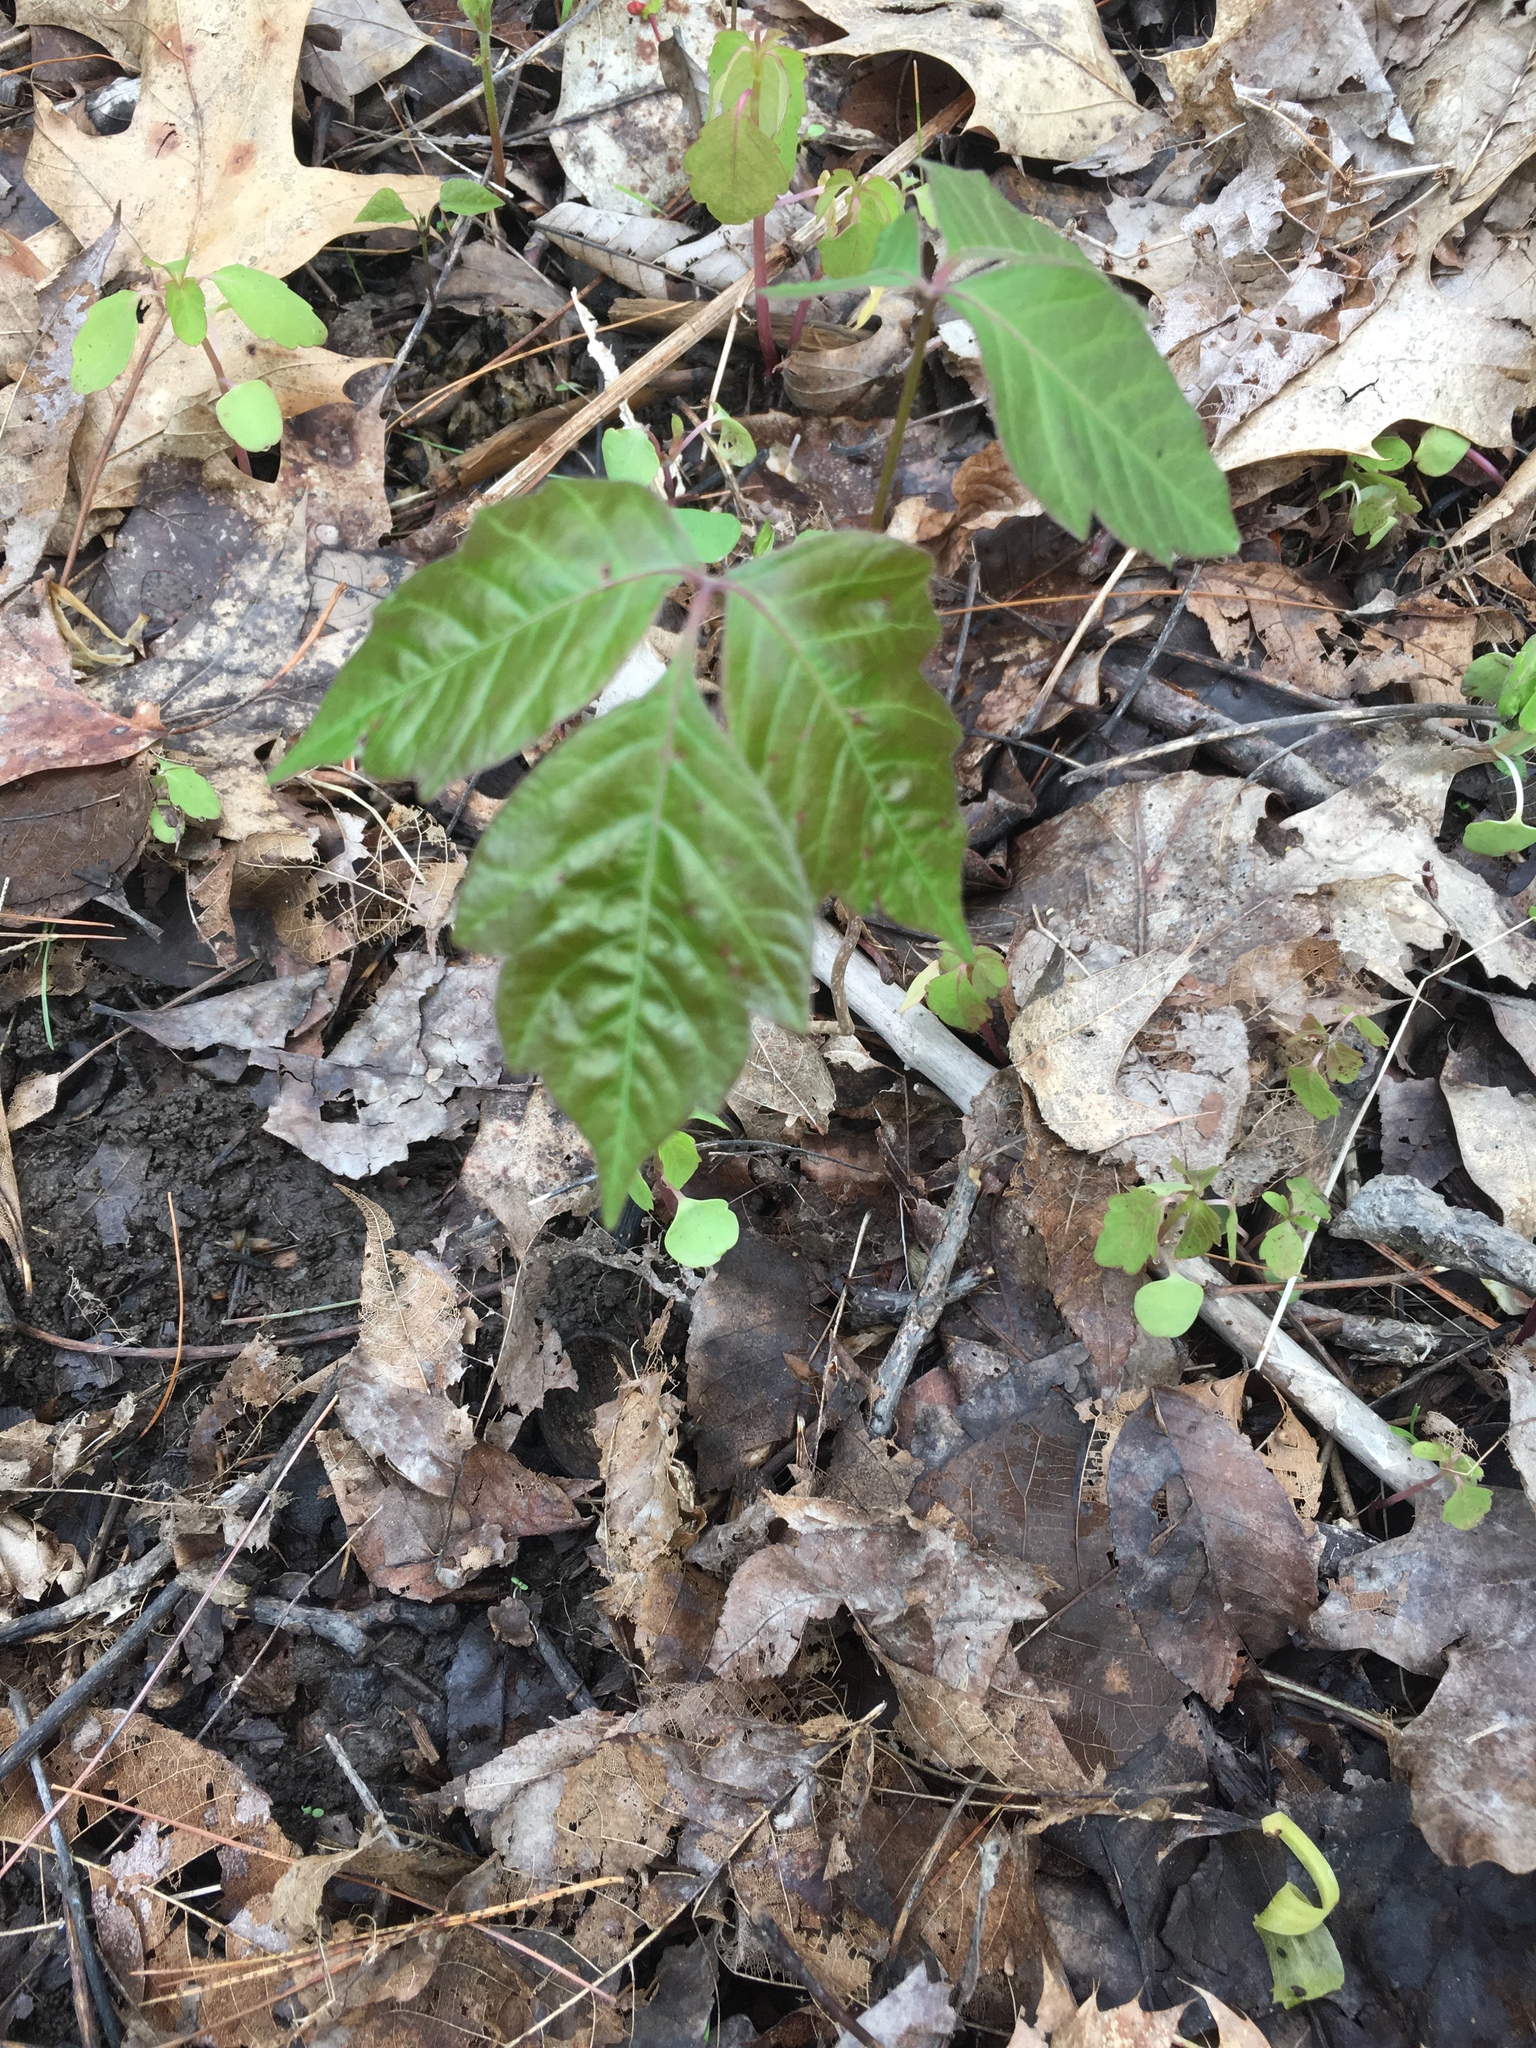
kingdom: Plantae
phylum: Tracheophyta
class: Magnoliopsida
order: Sapindales
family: Anacardiaceae
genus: Toxicodendron
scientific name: Toxicodendron radicans
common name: Poison ivy
